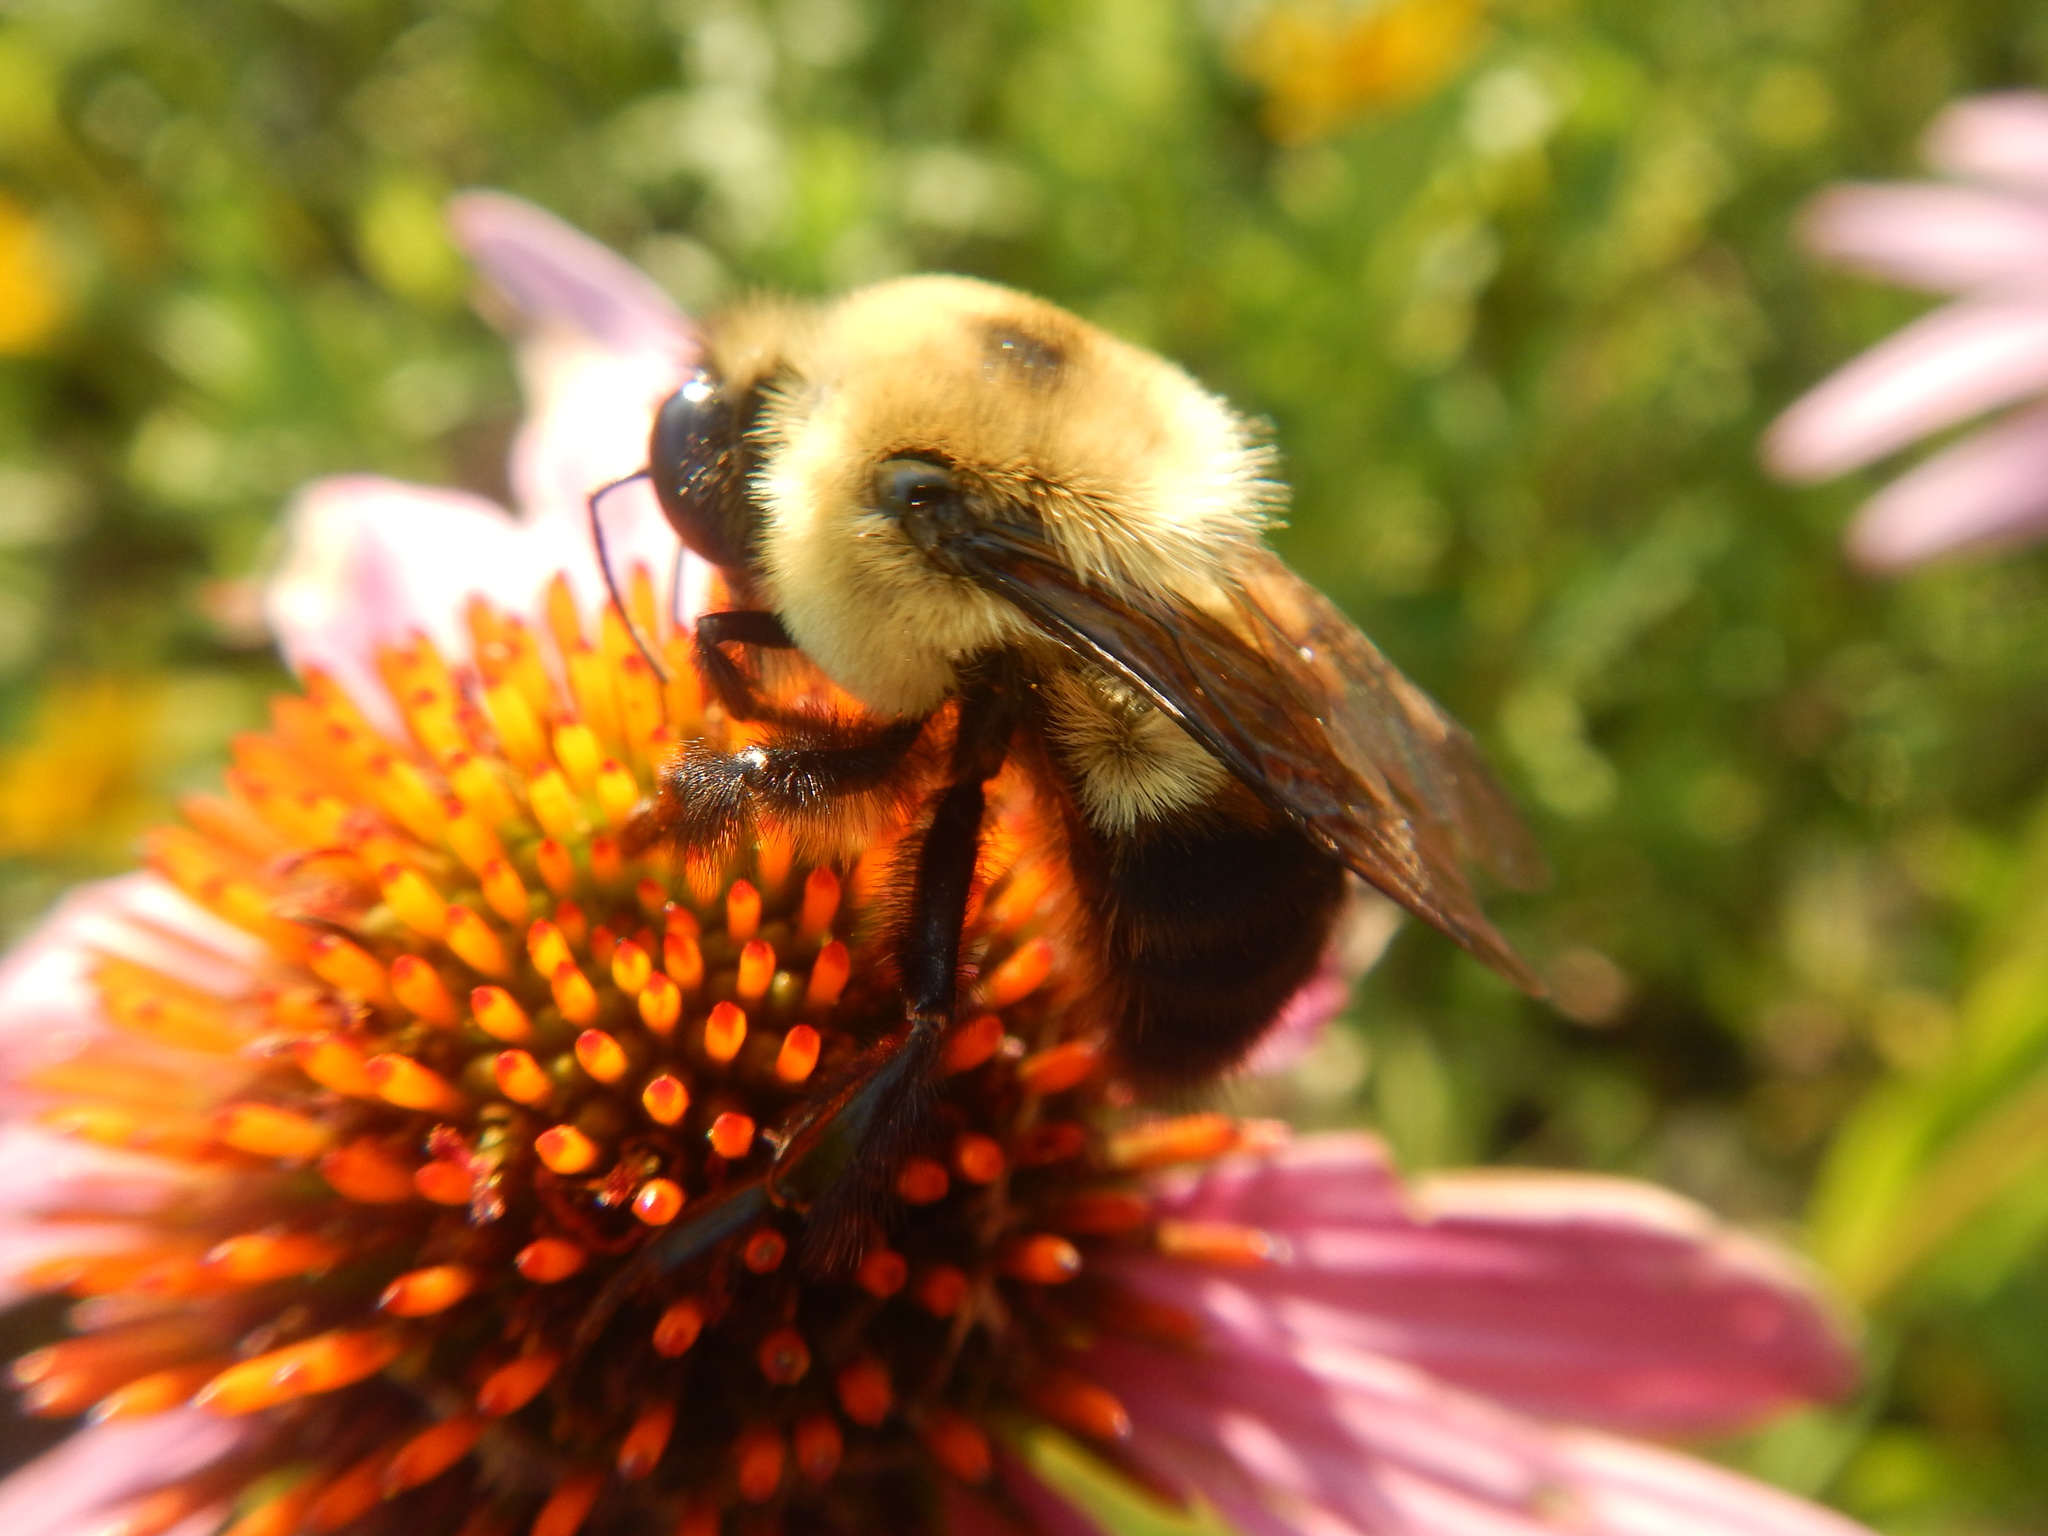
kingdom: Animalia
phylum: Arthropoda
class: Insecta
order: Hymenoptera
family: Apidae
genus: Bombus
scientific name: Bombus griseocollis
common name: Brown-belted bumble bee
